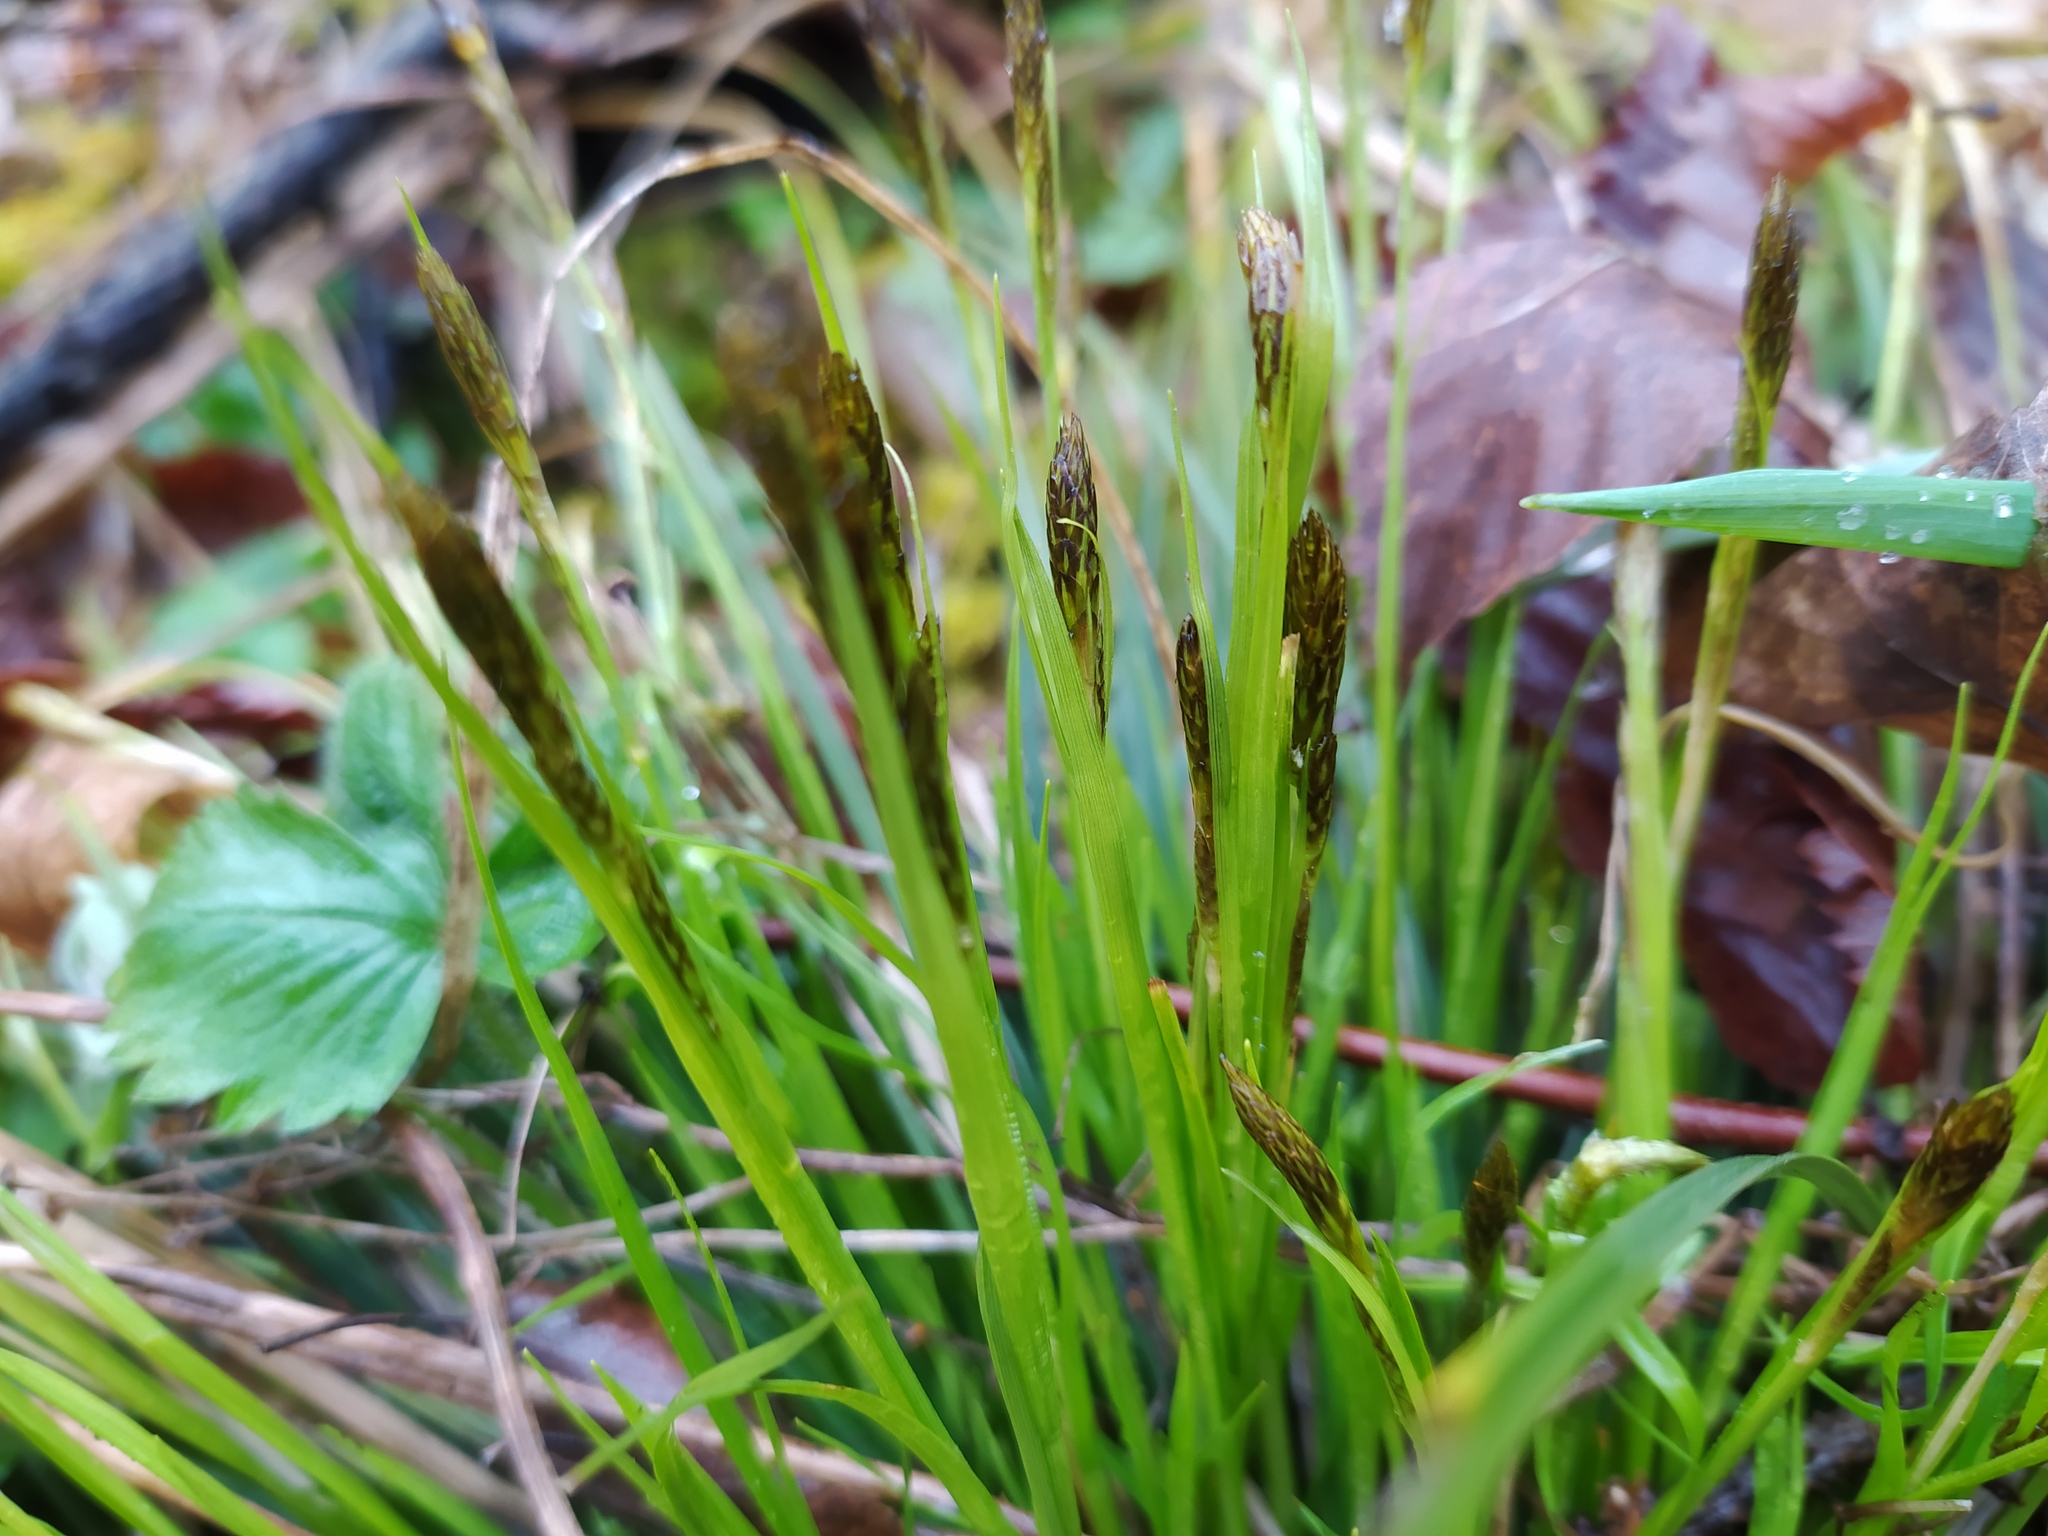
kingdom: Plantae
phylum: Tracheophyta
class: Liliopsida
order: Poales
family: Cyperaceae
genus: Carex
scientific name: Carex umbrosa
